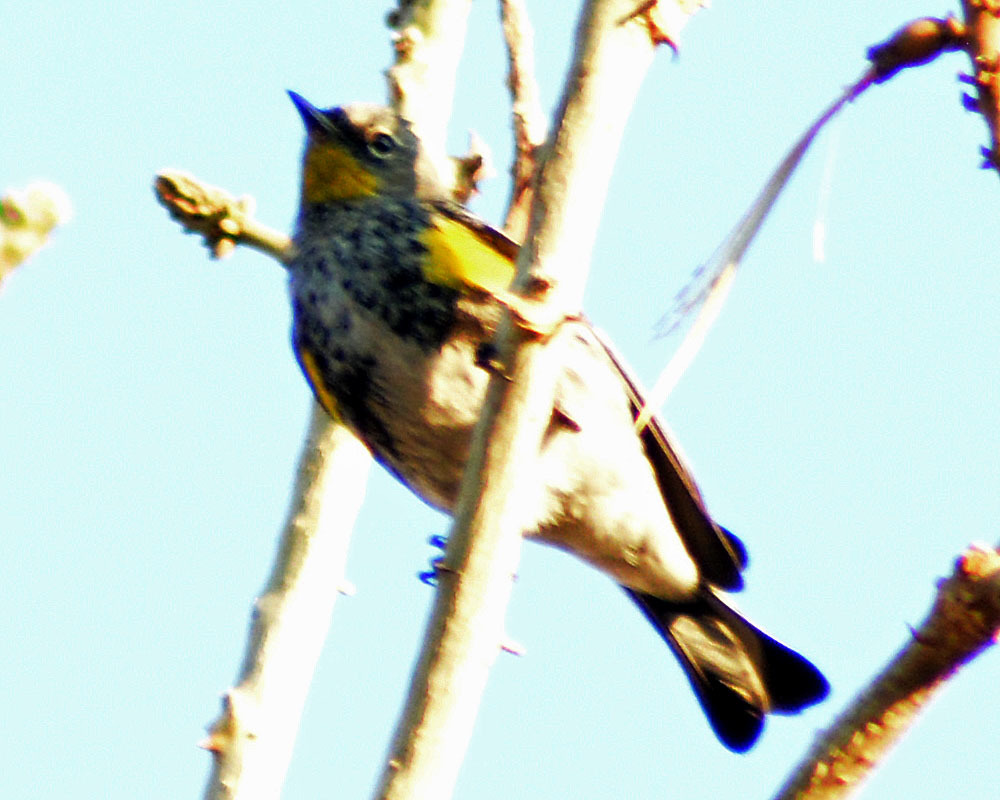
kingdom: Animalia
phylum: Chordata
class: Aves
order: Passeriformes
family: Parulidae
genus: Setophaga
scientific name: Setophaga auduboni
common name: Audubon's warbler
